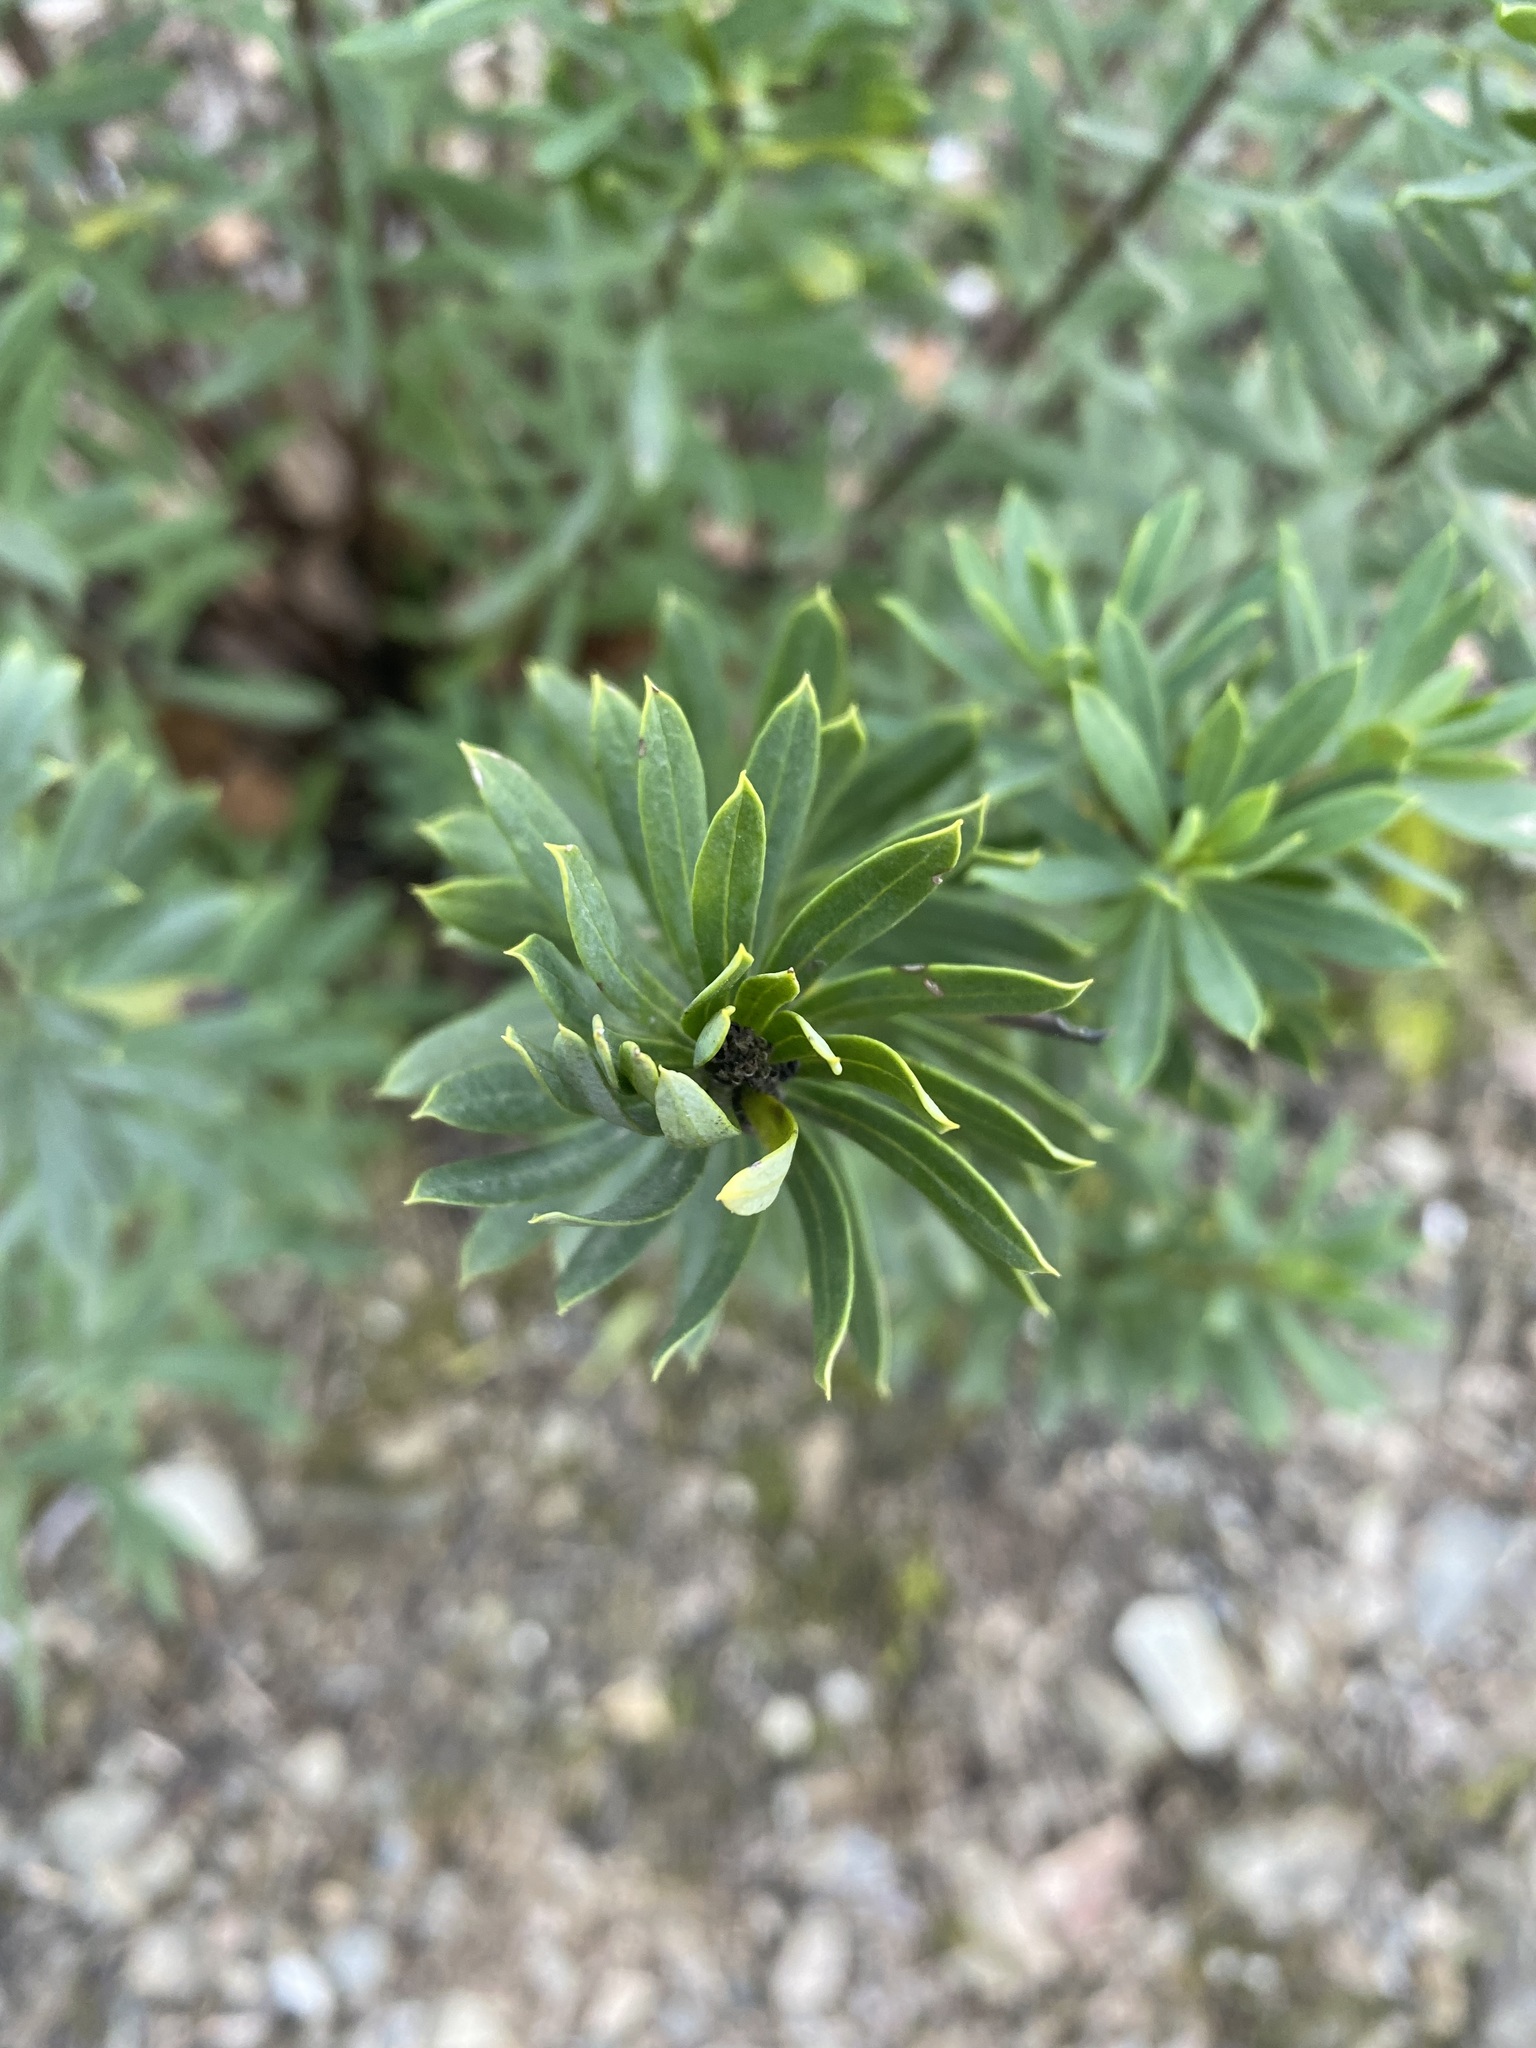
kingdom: Plantae
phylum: Tracheophyta
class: Magnoliopsida
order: Malvales
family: Thymelaeaceae
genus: Daphne
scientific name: Daphne gnidium
